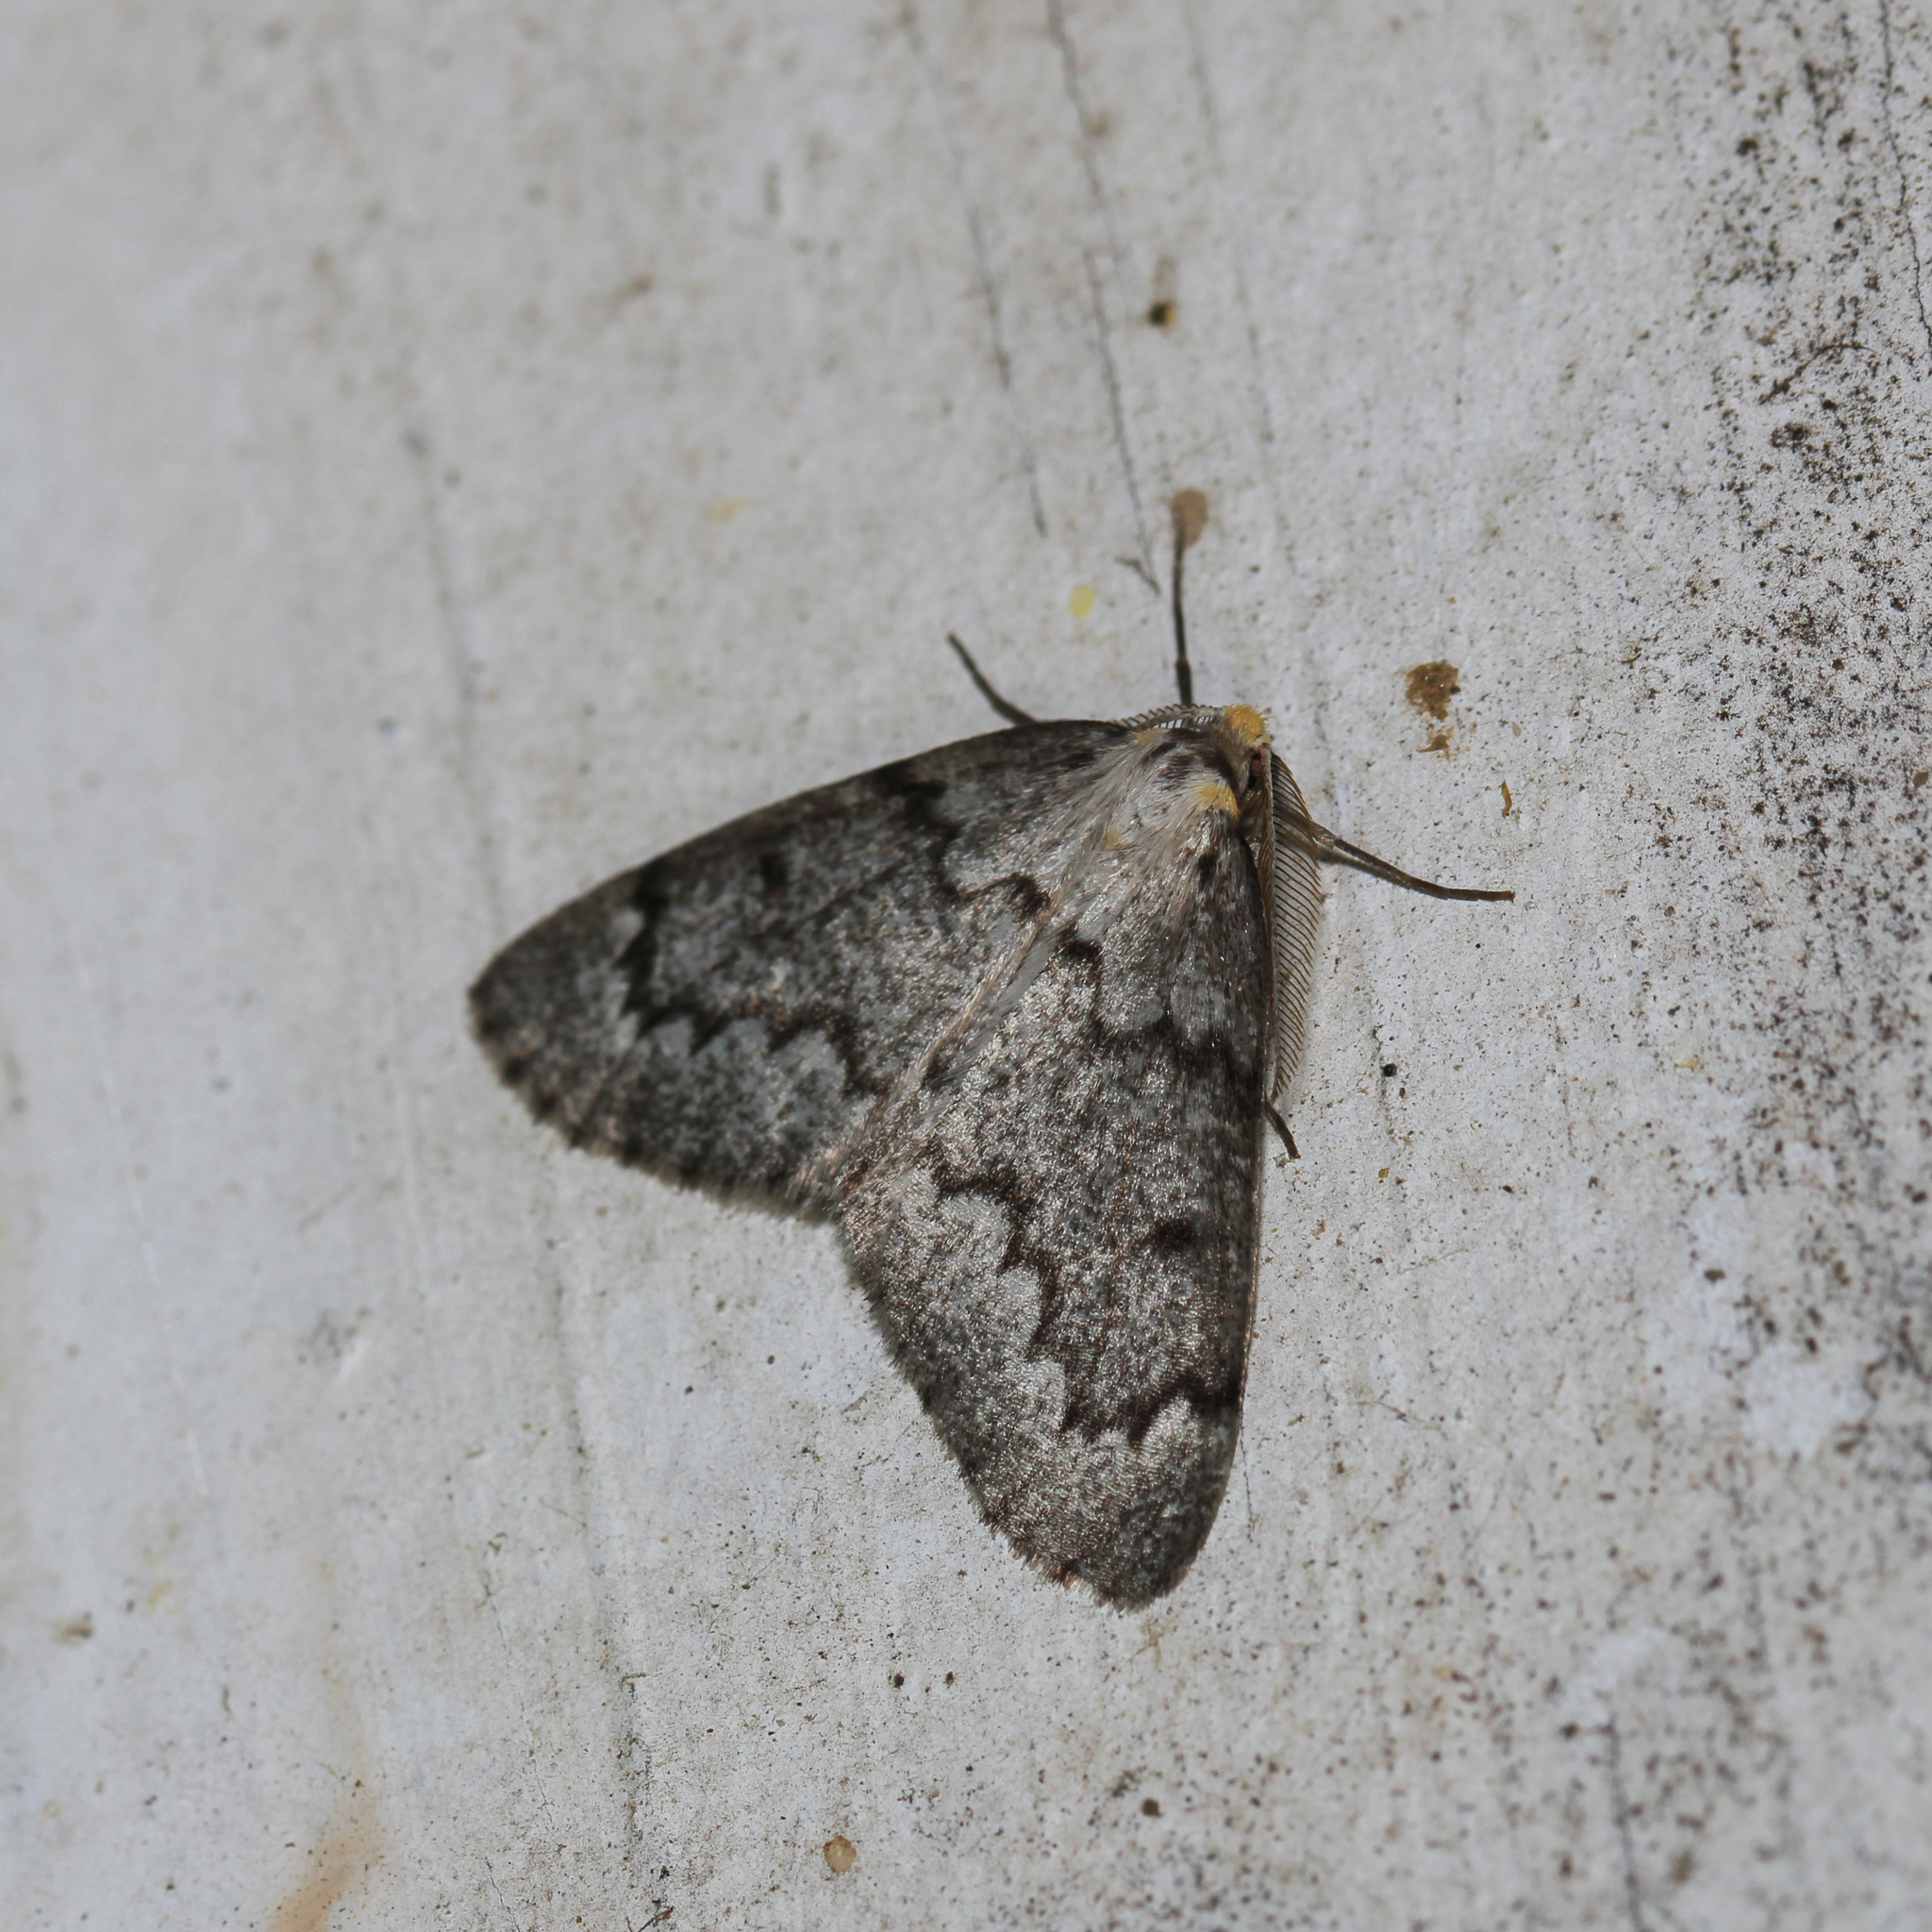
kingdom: Animalia
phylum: Arthropoda
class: Insecta
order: Lepidoptera
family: Geometridae
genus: Nepytia
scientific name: Nepytia canosaria
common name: False hemlock looper
